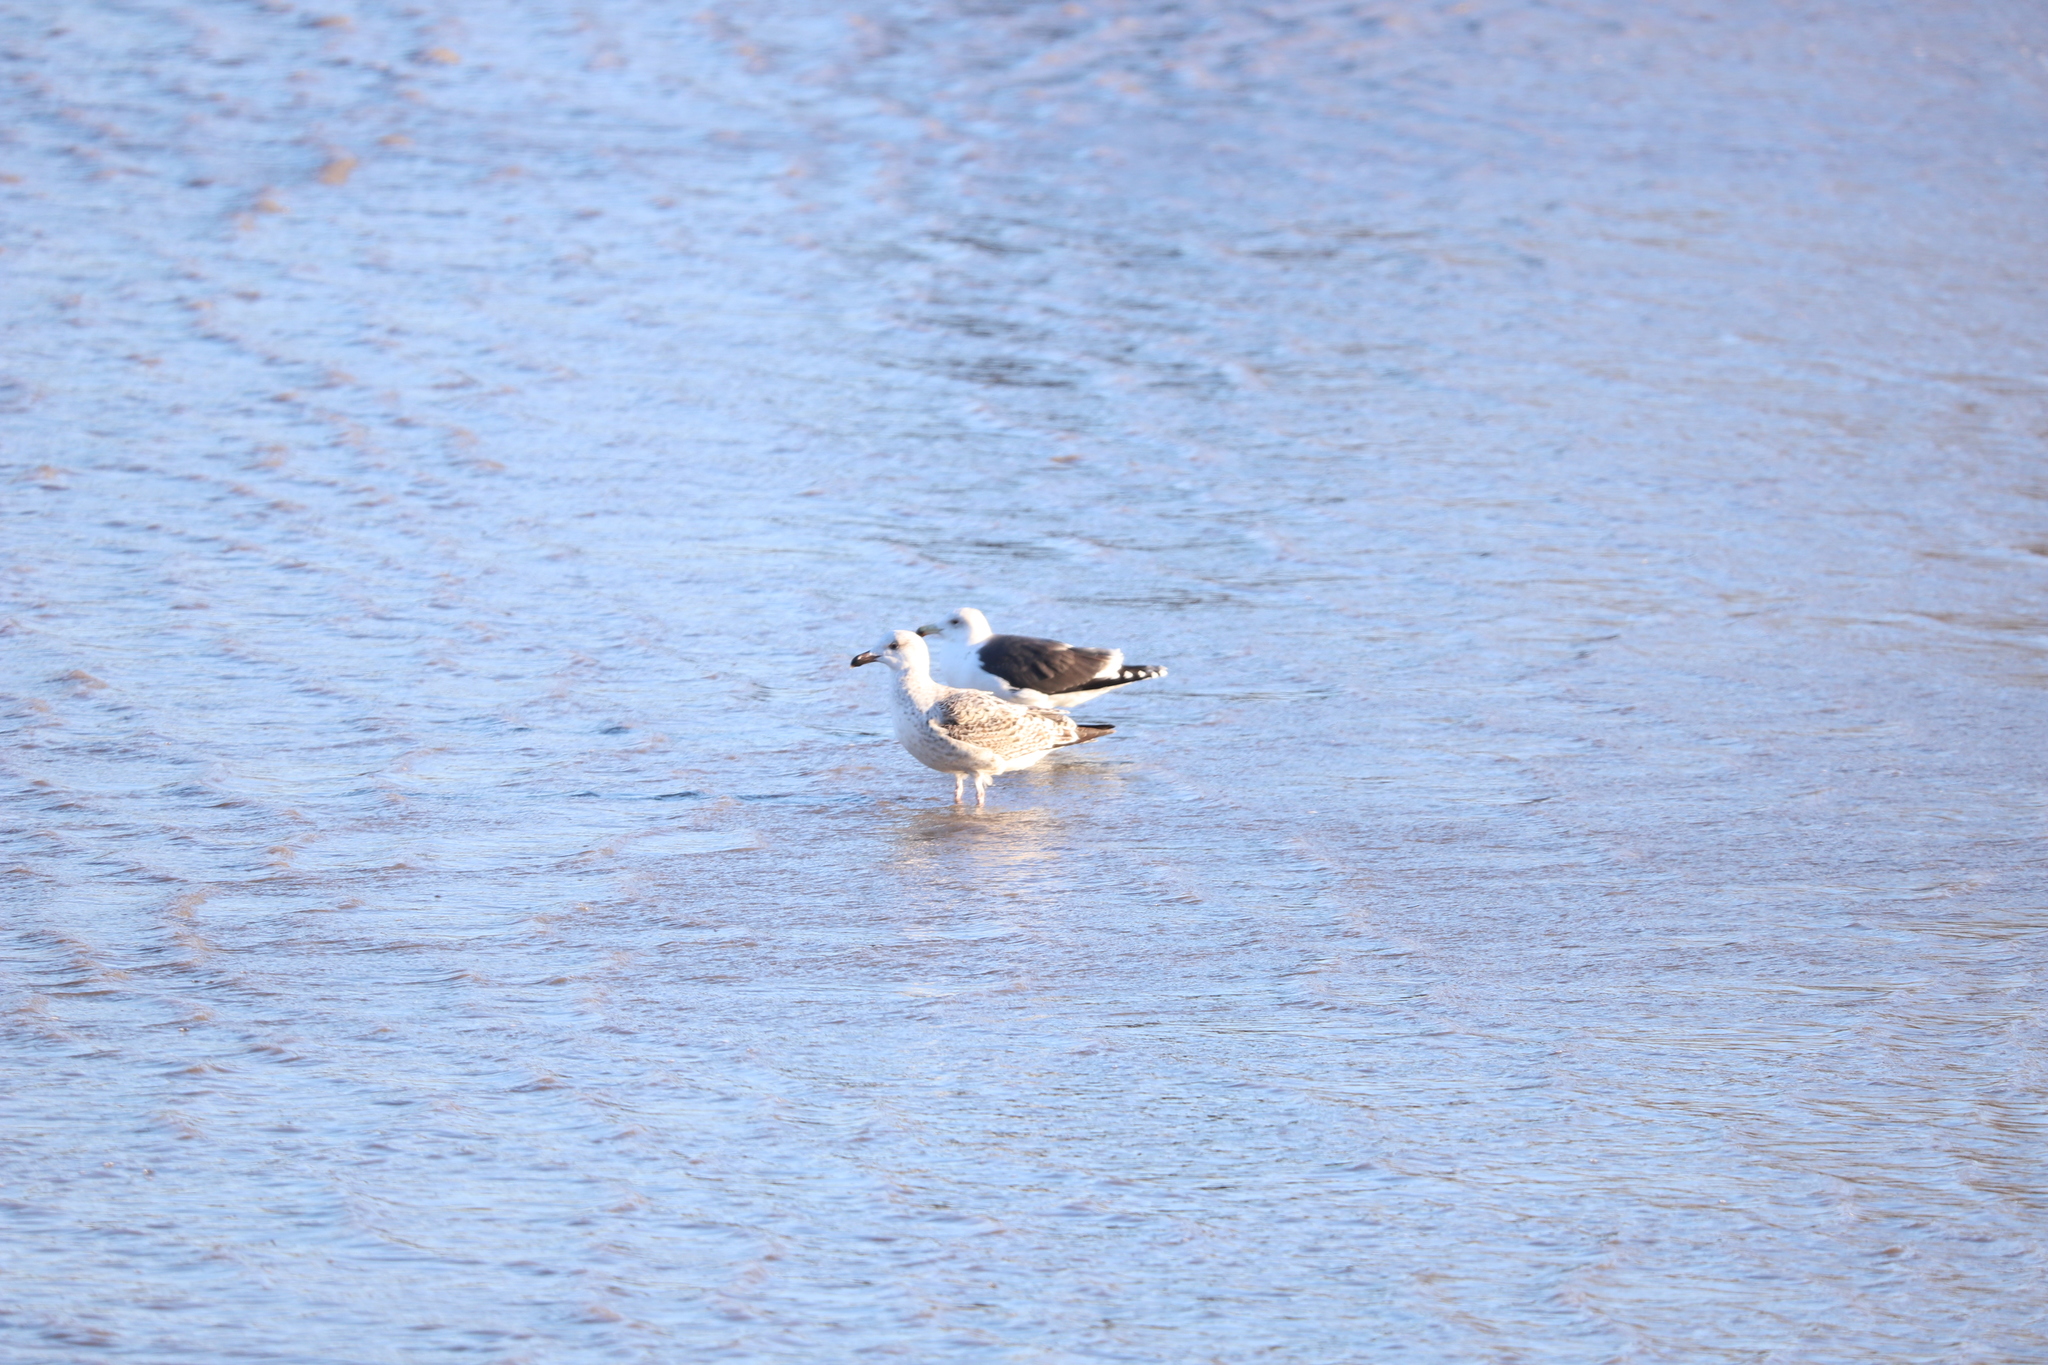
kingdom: Animalia
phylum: Chordata
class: Aves
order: Charadriiformes
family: Laridae
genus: Larus
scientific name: Larus marinus
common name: Great black-backed gull
